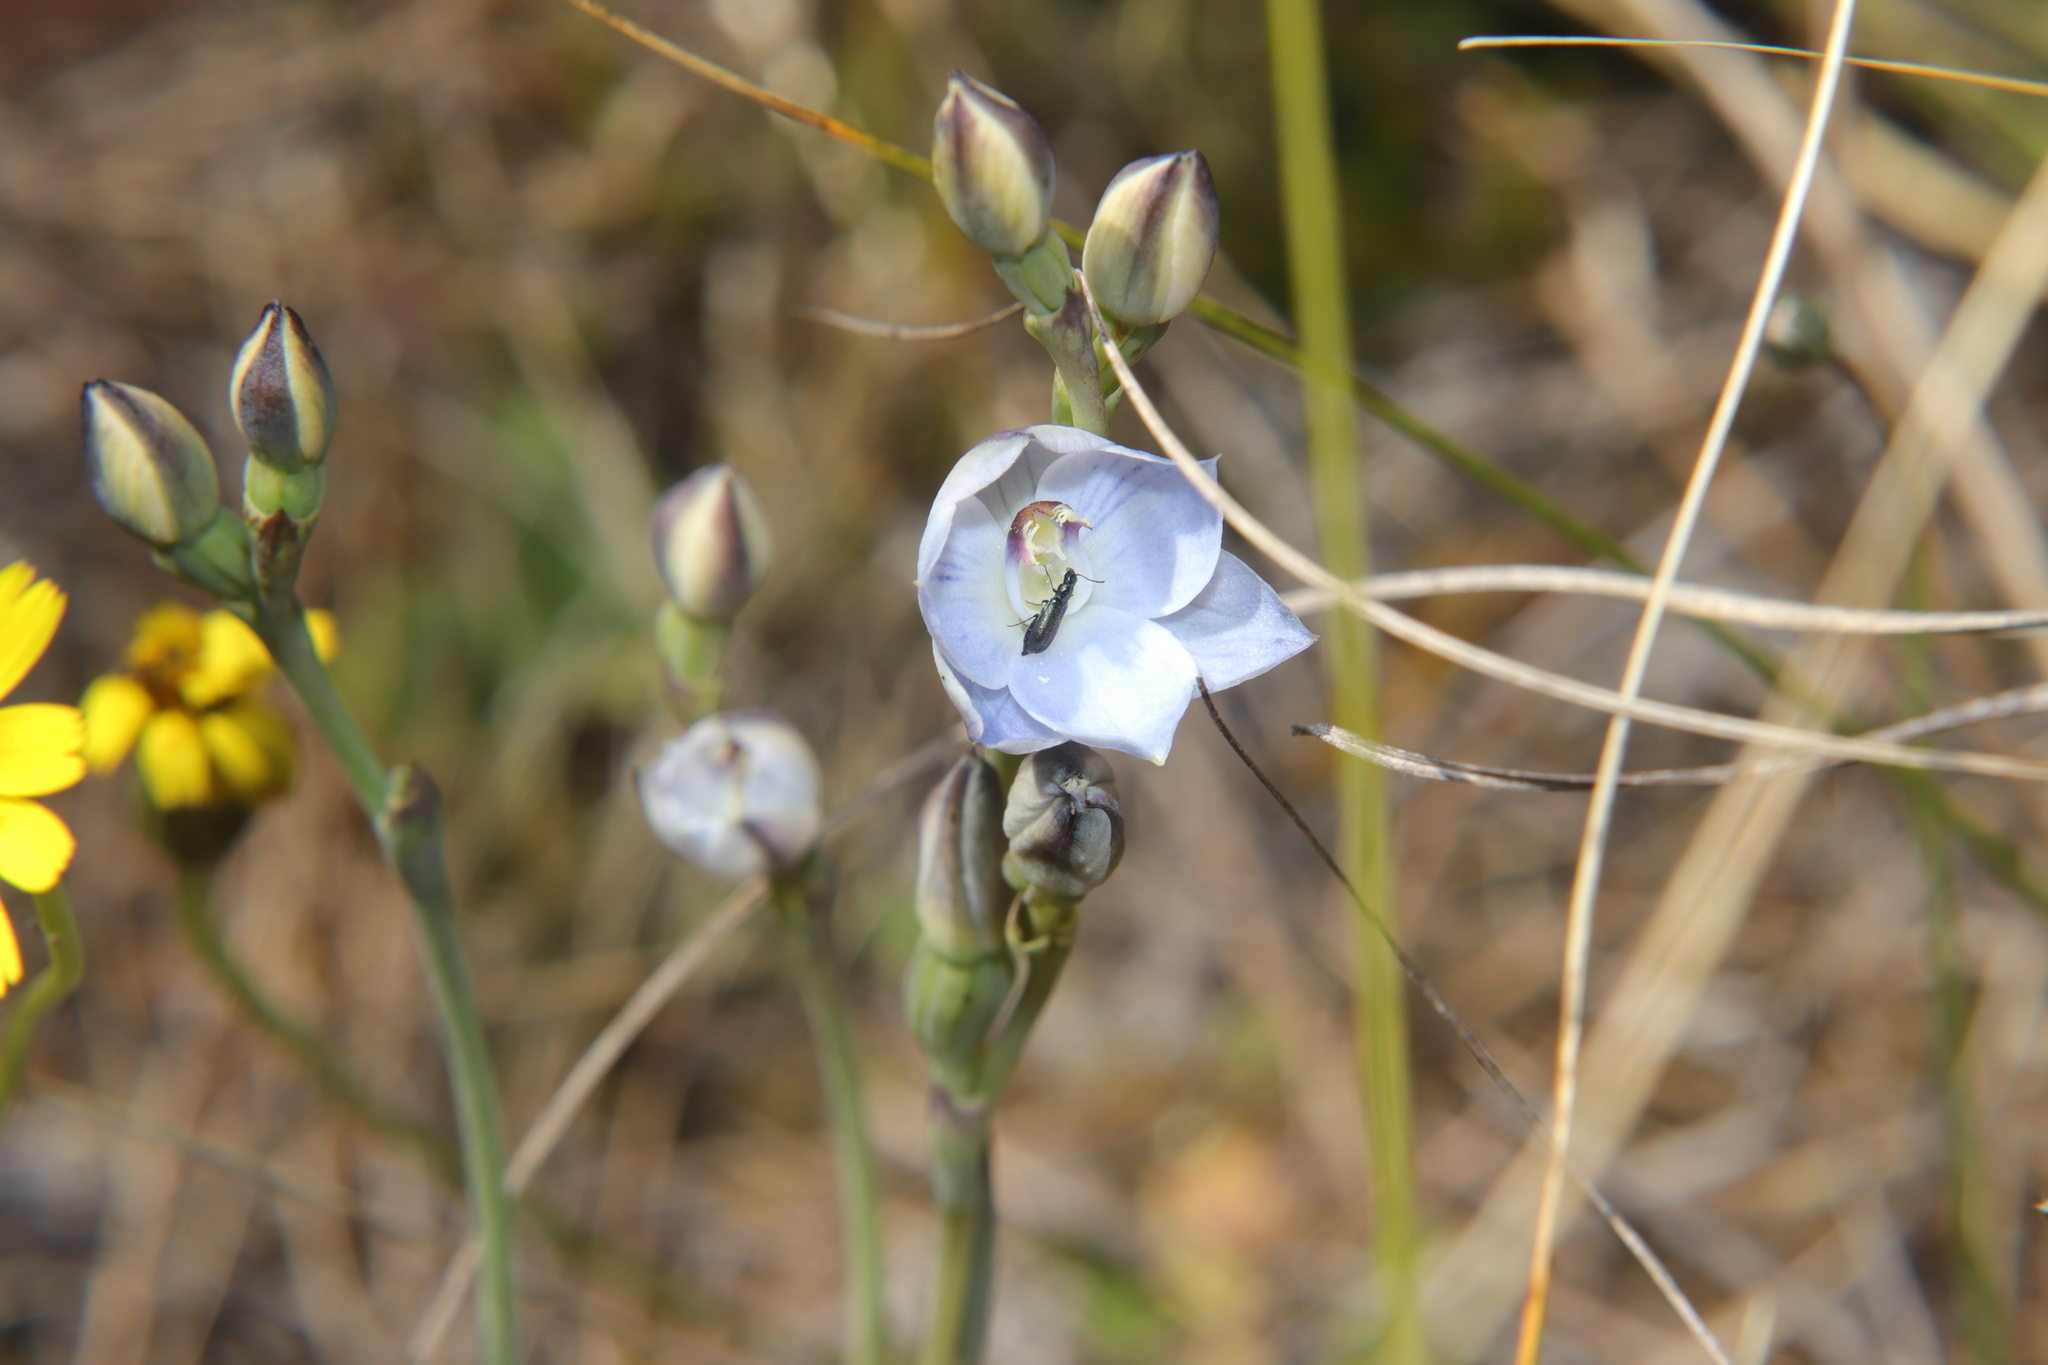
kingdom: Plantae
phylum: Tracheophyta
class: Liliopsida
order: Asparagales
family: Orchidaceae
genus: Thelymitra
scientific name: Thelymitra pulchella
